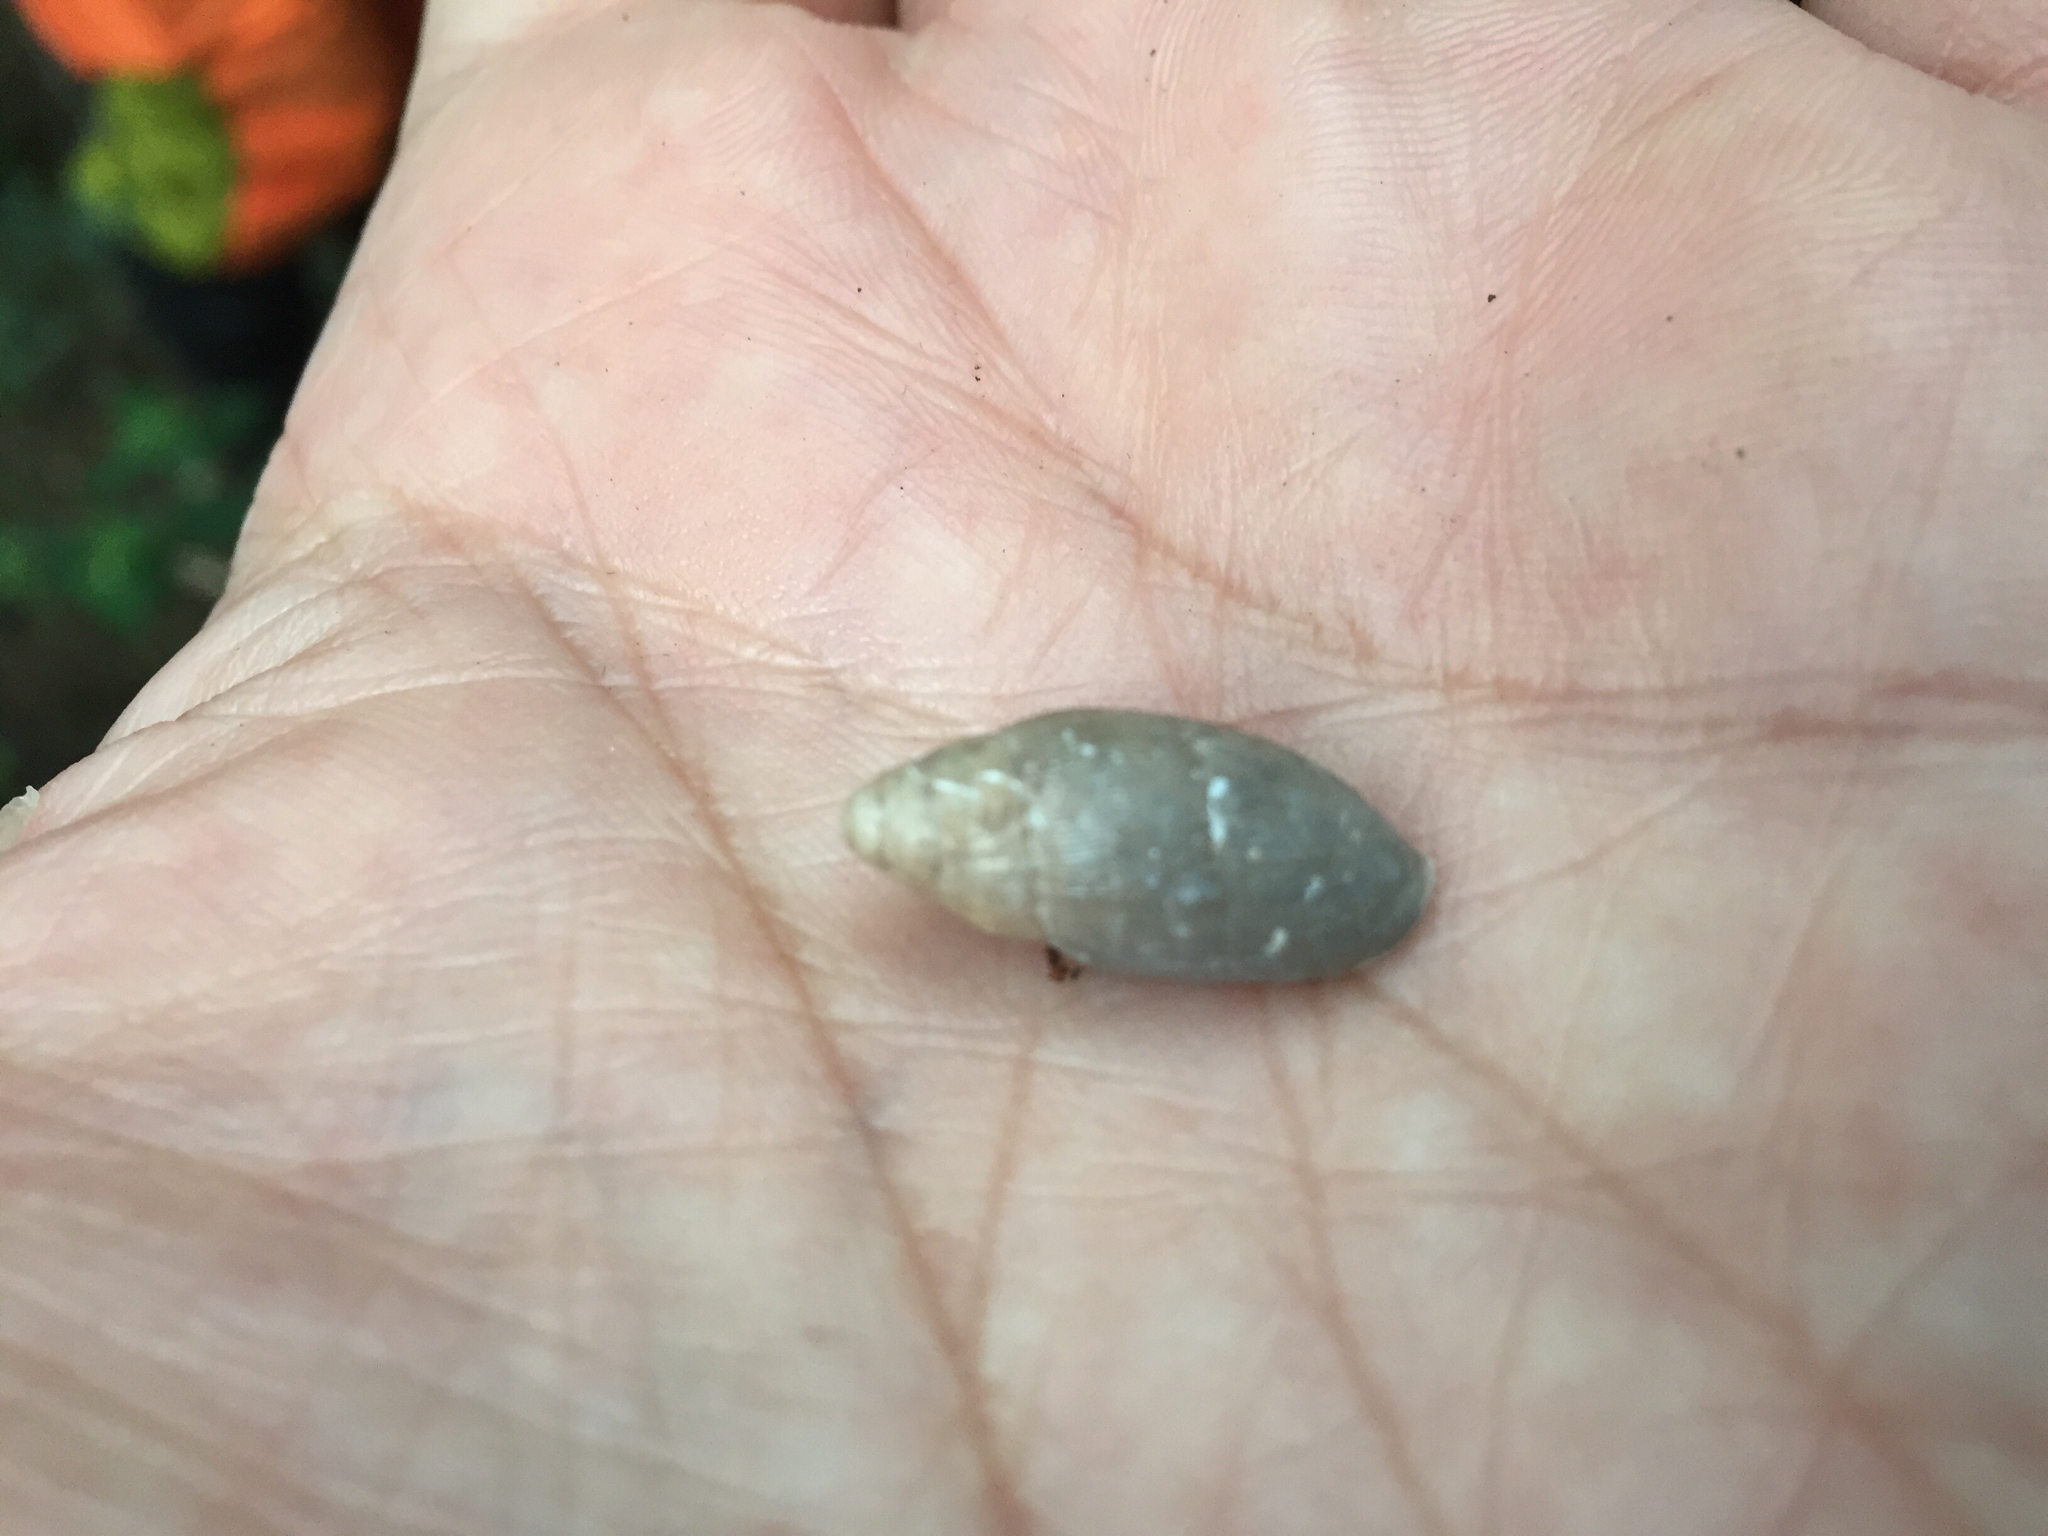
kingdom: Animalia
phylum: Mollusca
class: Gastropoda
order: Stylommatophora
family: Spiraxidae
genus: Euglandina
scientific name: Euglandina texasiana
